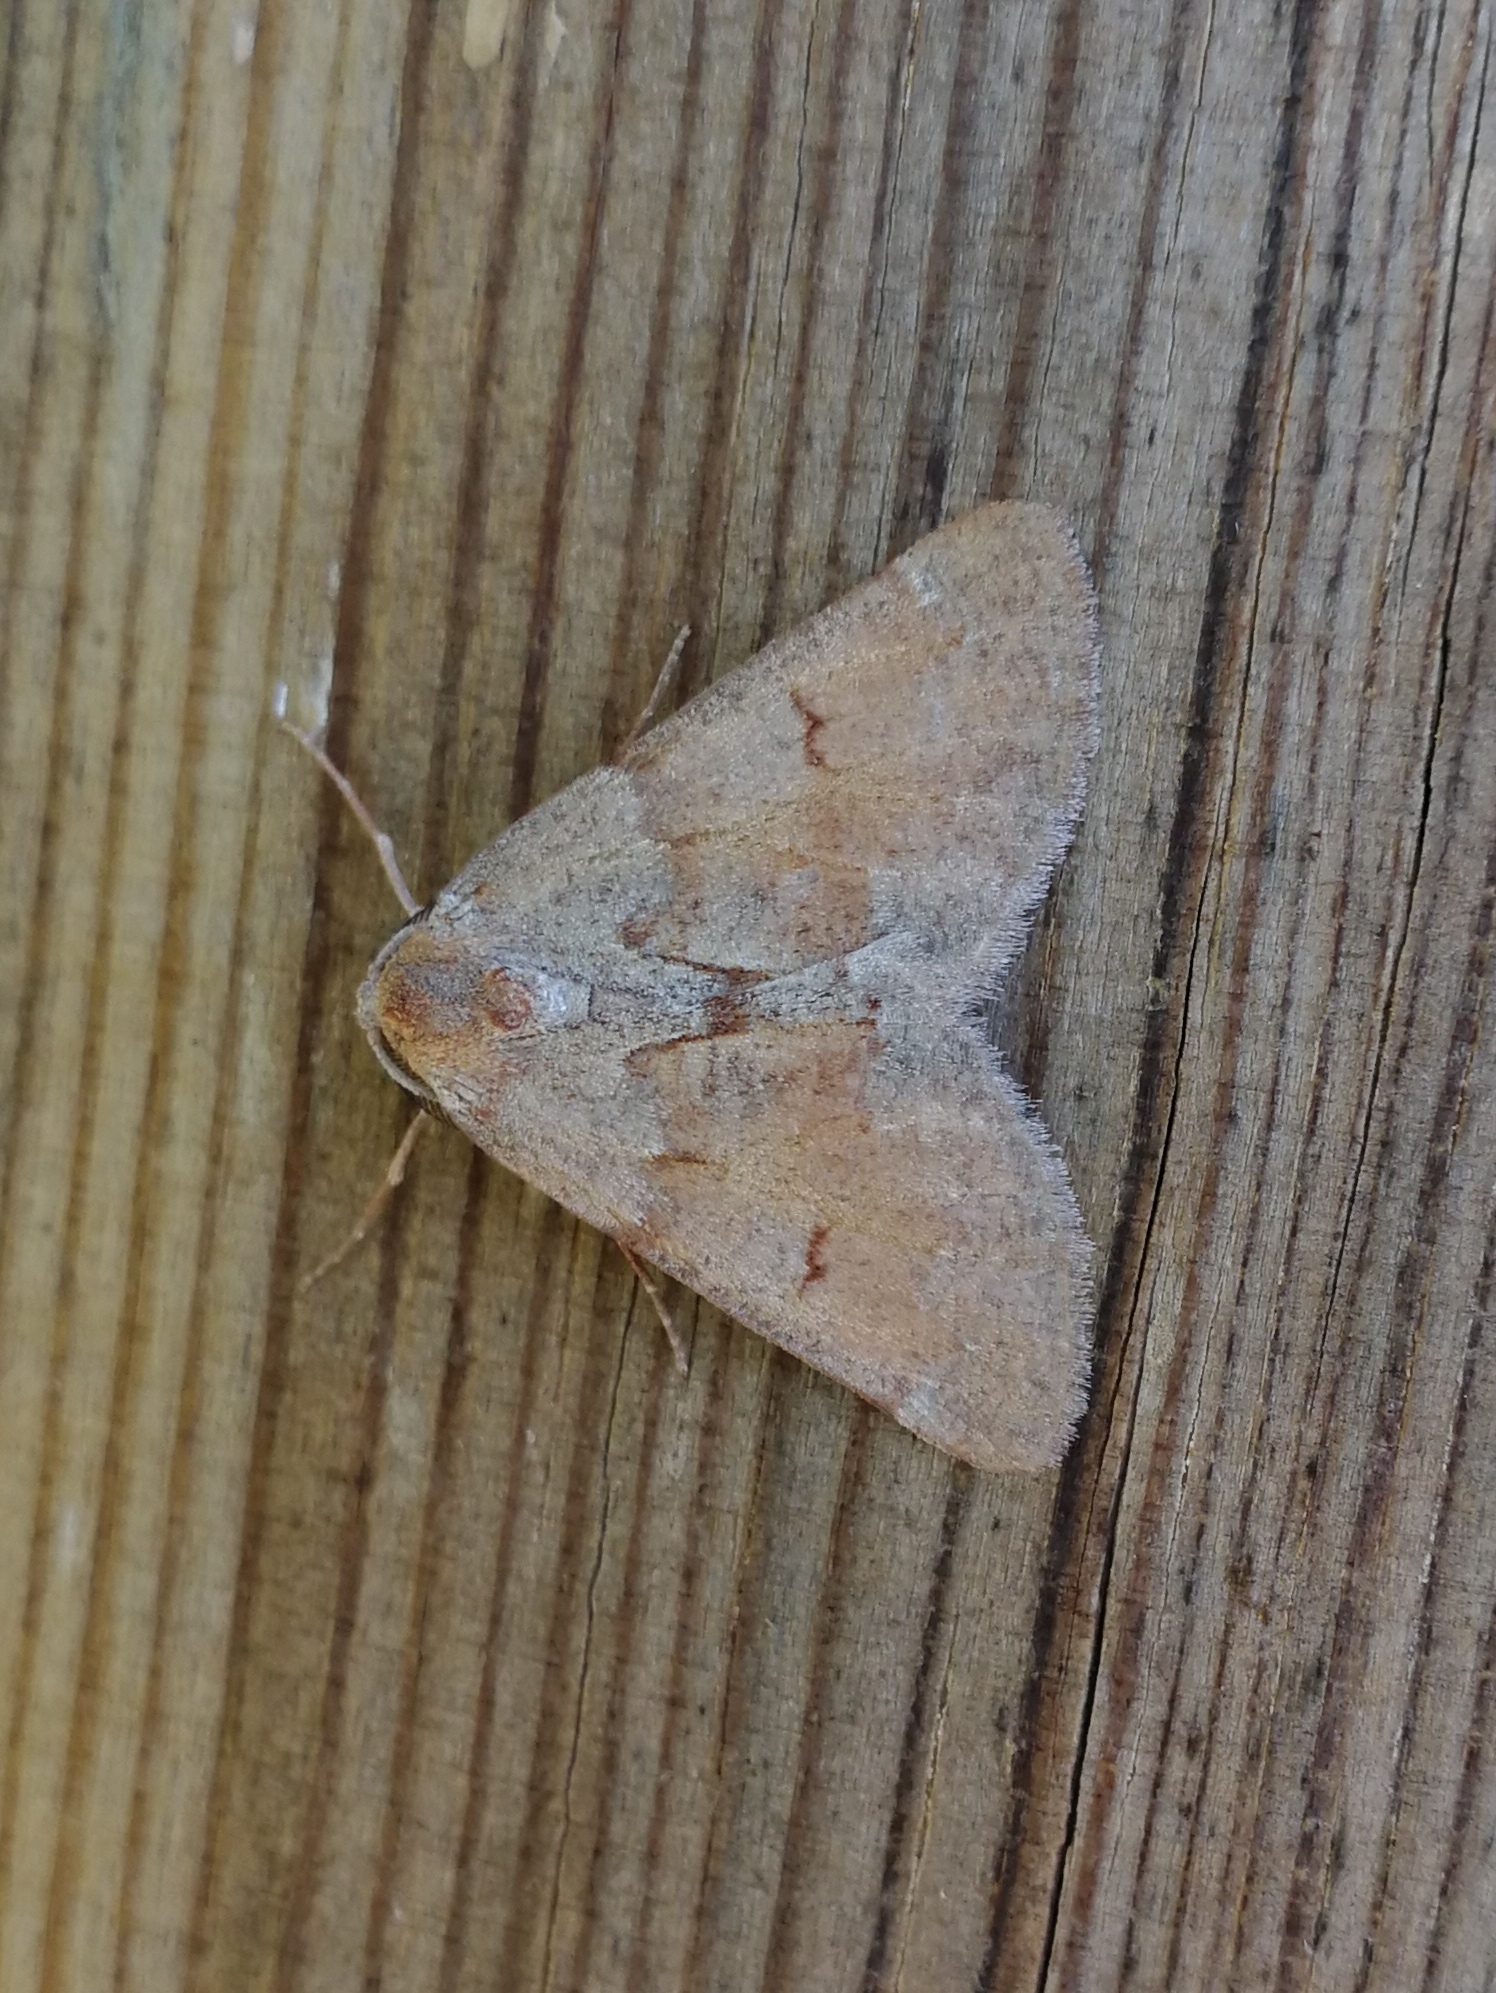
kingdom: Animalia
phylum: Arthropoda
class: Insecta
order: Lepidoptera
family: Geometridae
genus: Adalbertia
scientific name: Adalbertia castiliaria
